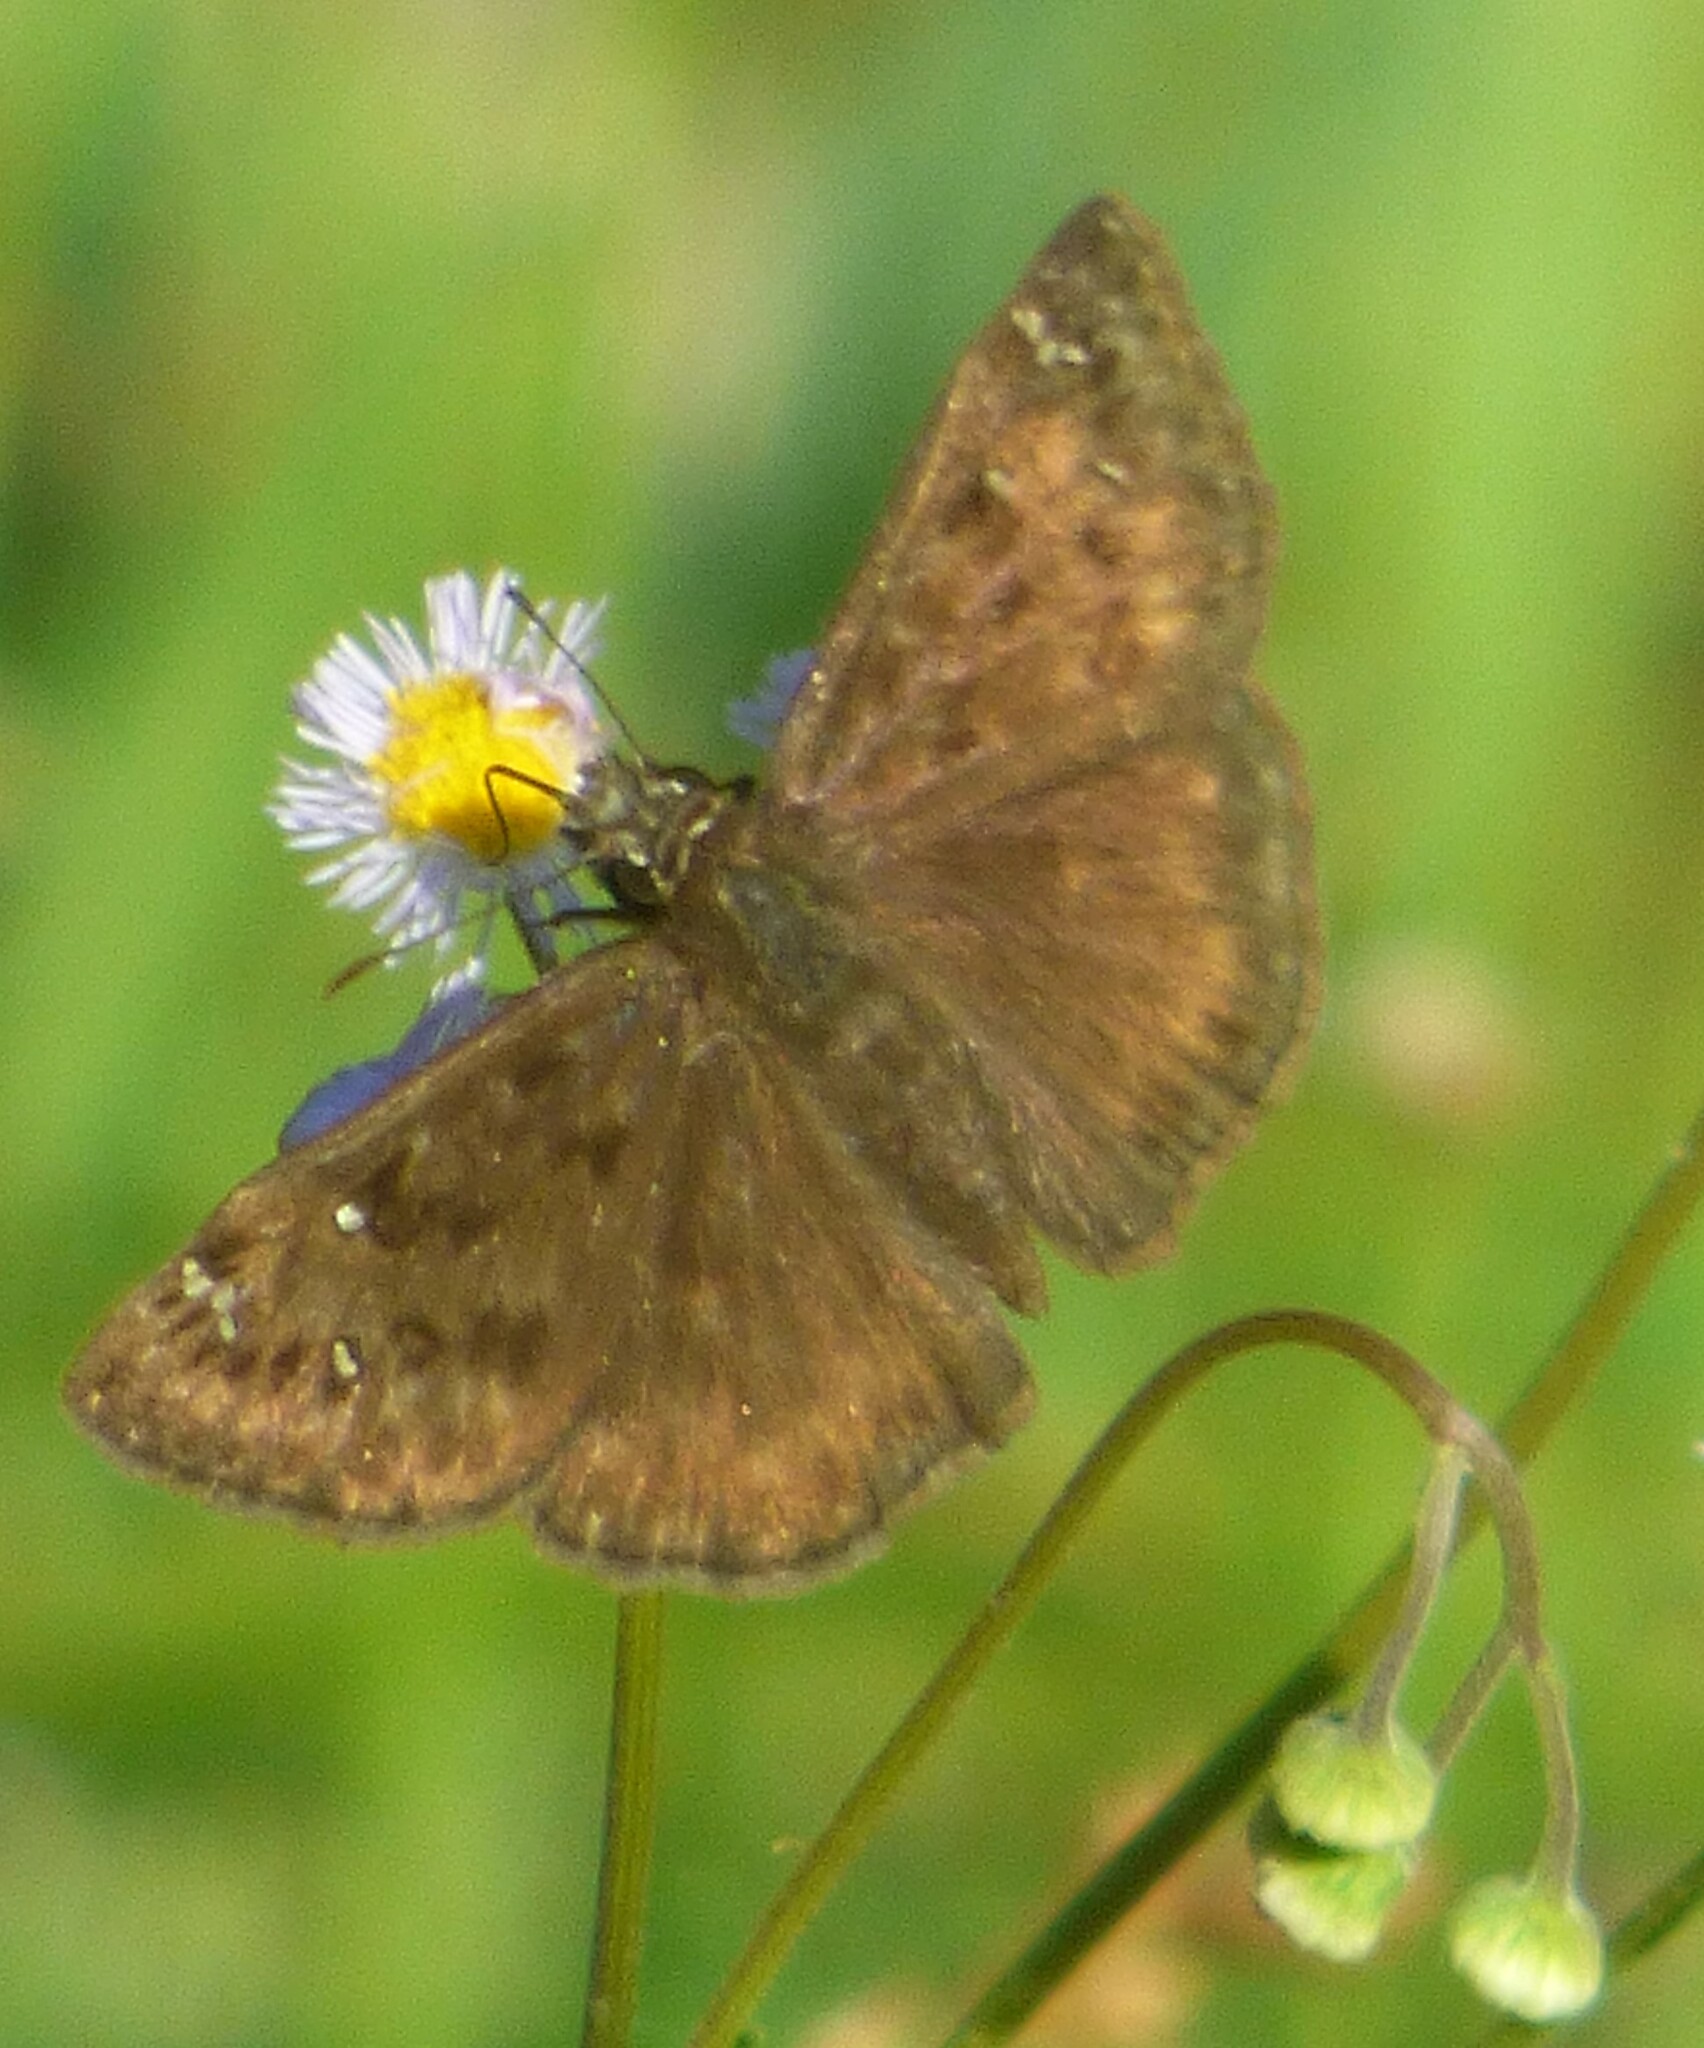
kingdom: Animalia
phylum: Arthropoda
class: Insecta
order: Lepidoptera
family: Hesperiidae
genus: Erynnis
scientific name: Erynnis horatius
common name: Horace's duskywing
